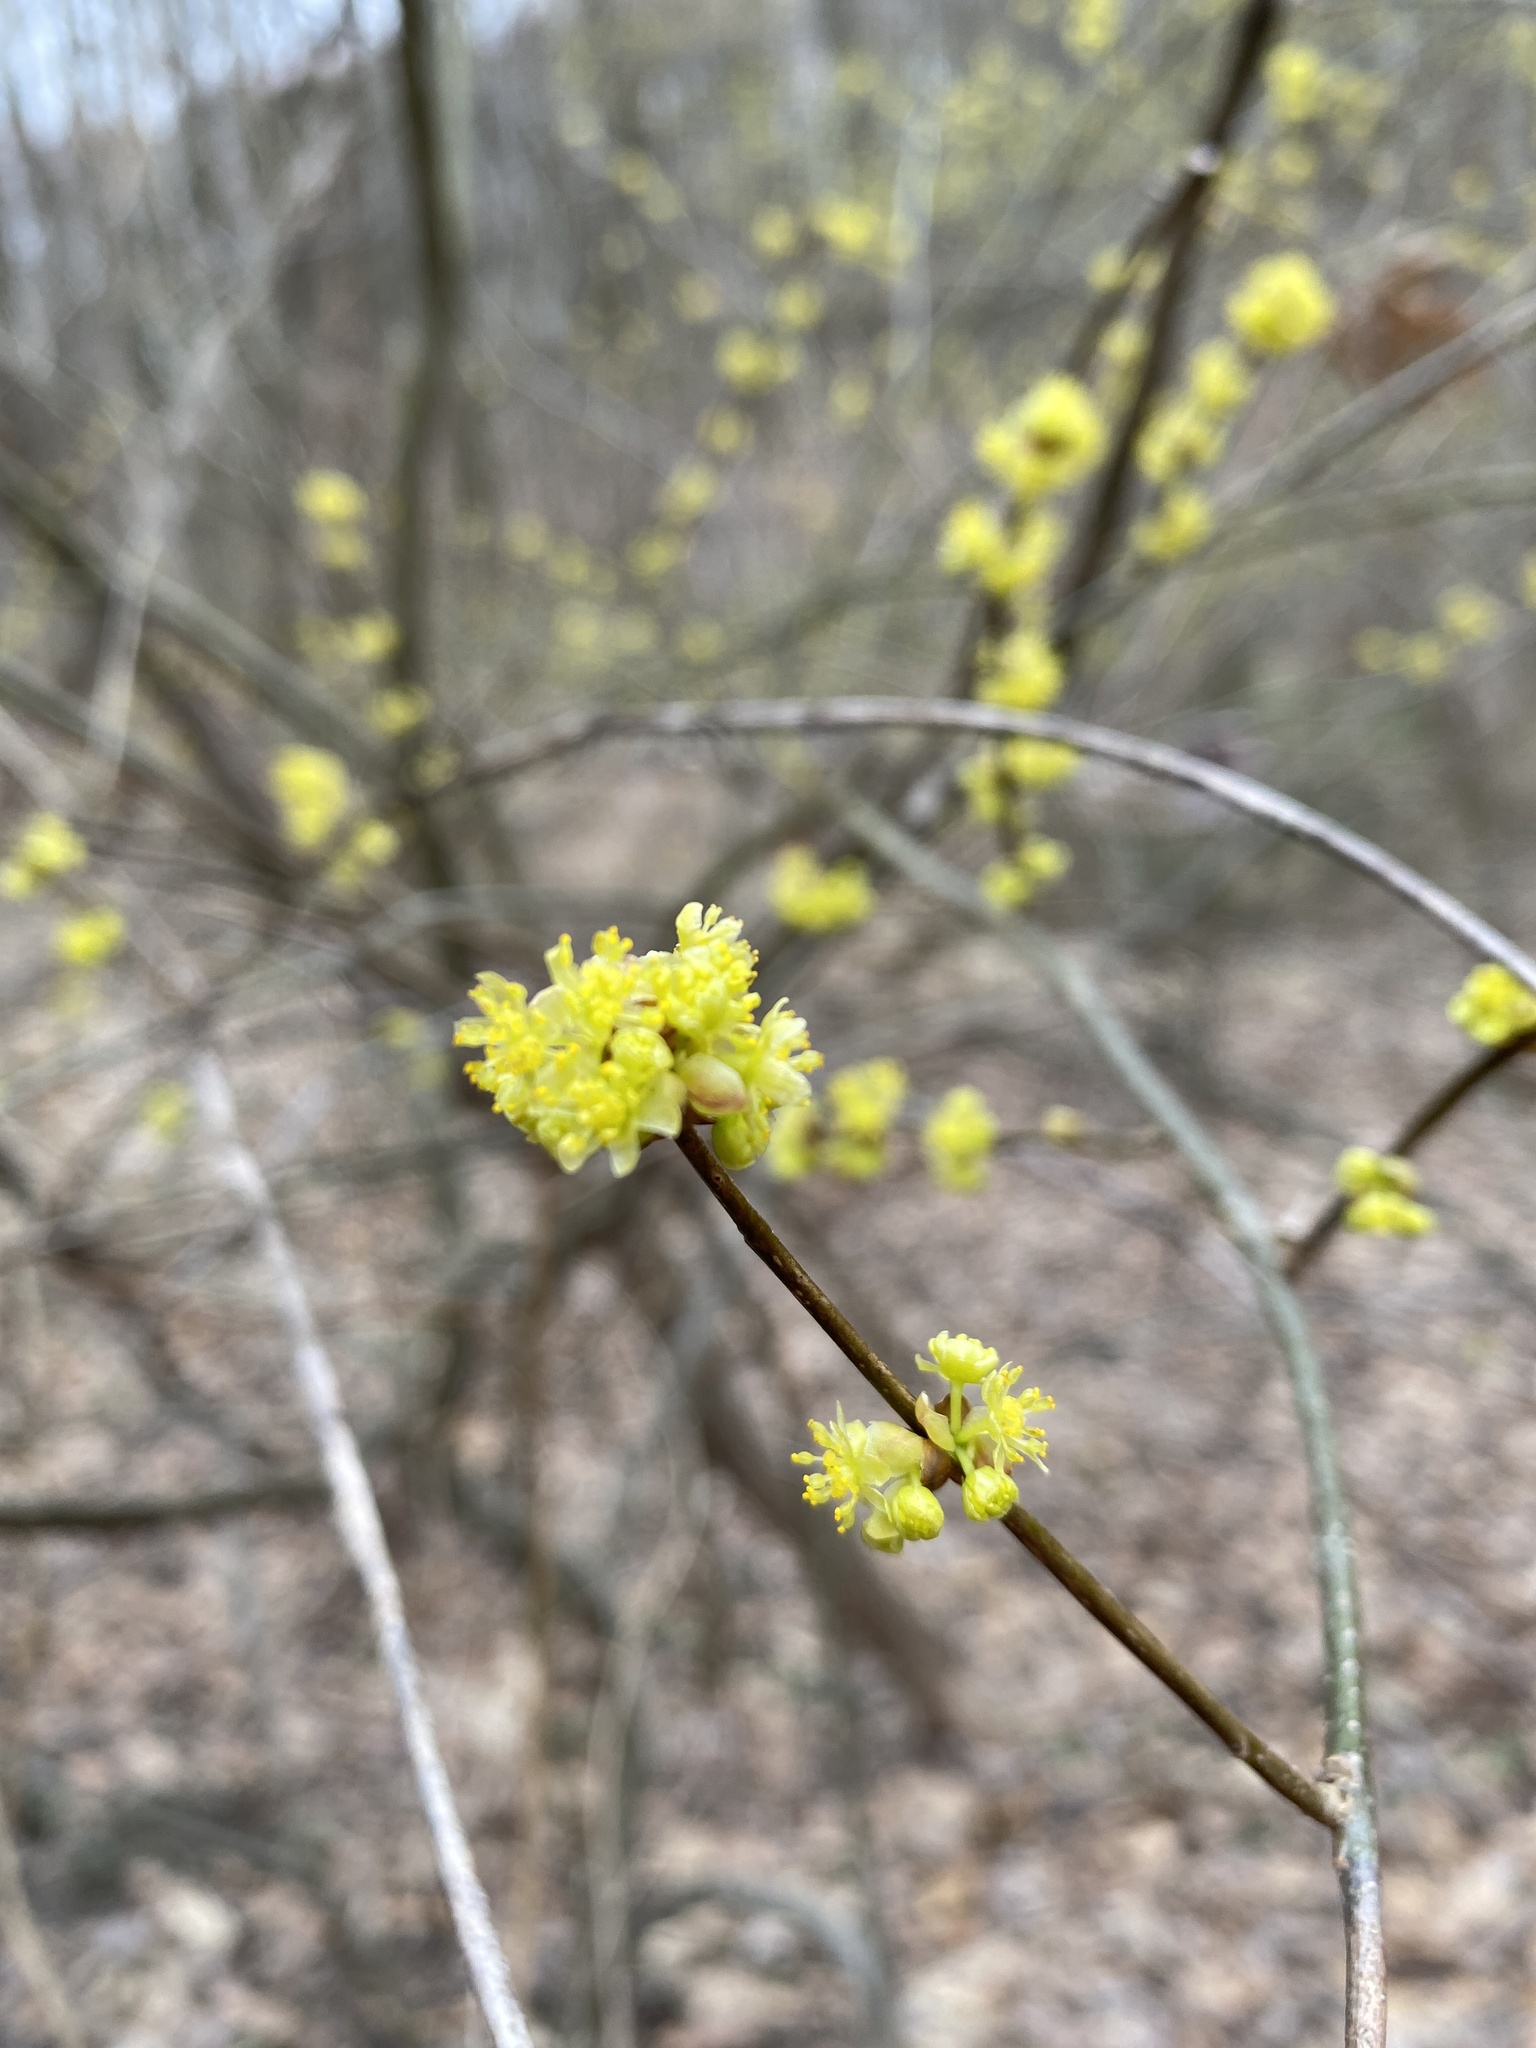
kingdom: Plantae
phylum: Tracheophyta
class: Magnoliopsida
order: Laurales
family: Lauraceae
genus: Lindera
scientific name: Lindera benzoin
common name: Spicebush
